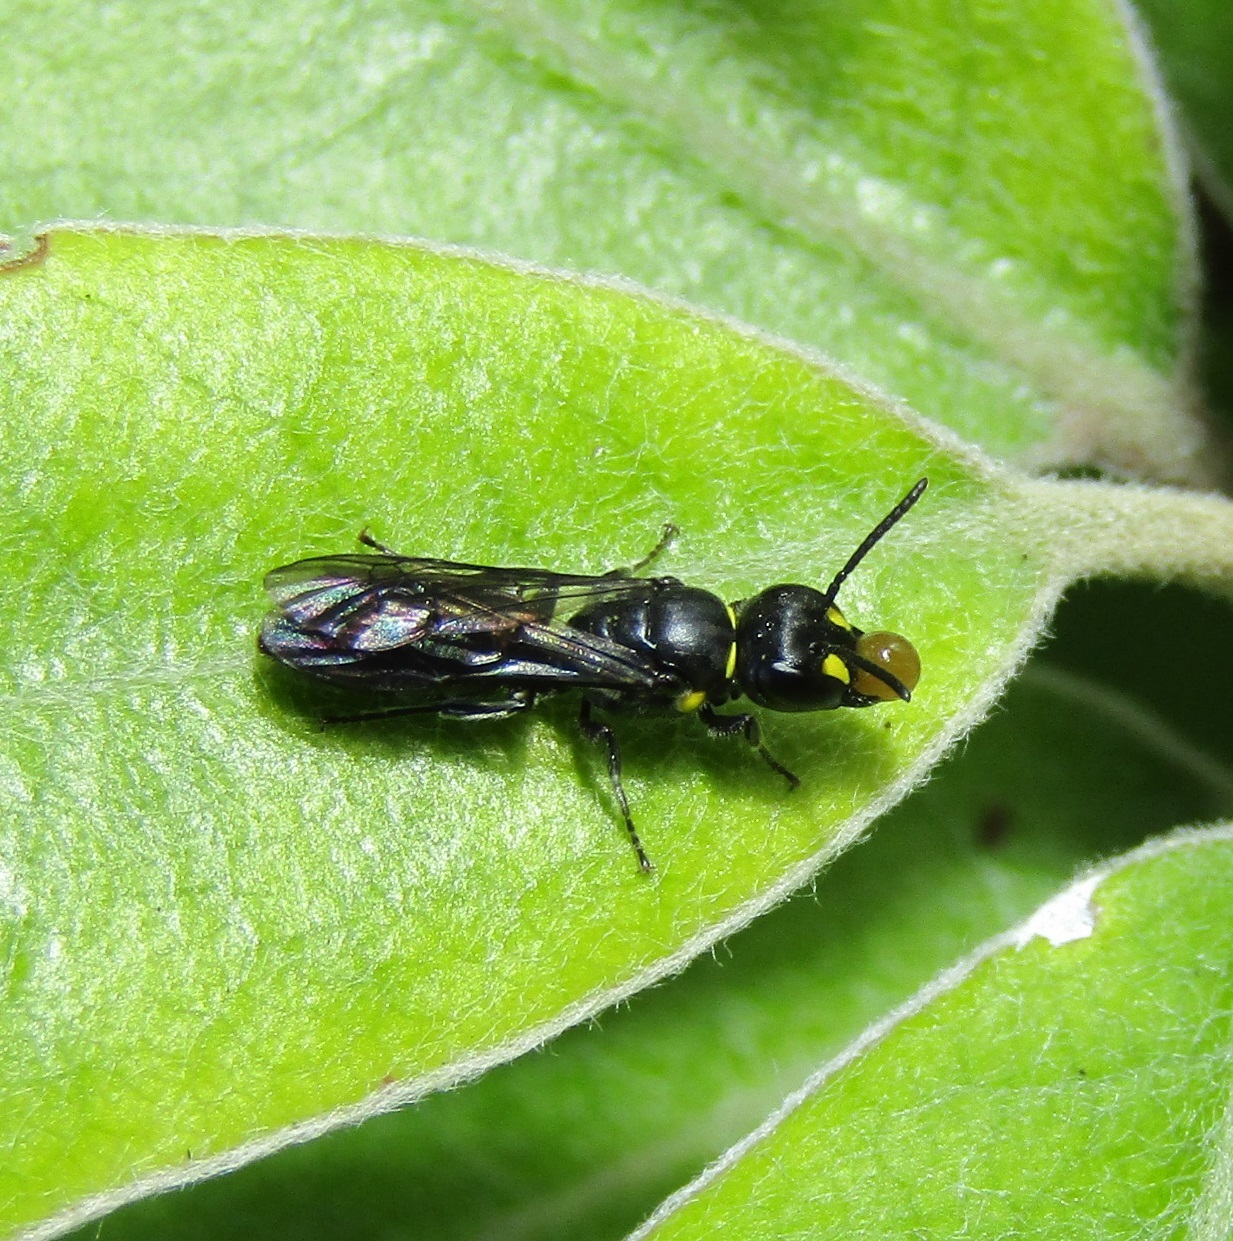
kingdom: Animalia
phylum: Arthropoda
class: Insecta
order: Hymenoptera
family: Colletidae
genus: Hylaeus
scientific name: Hylaeus agilis
